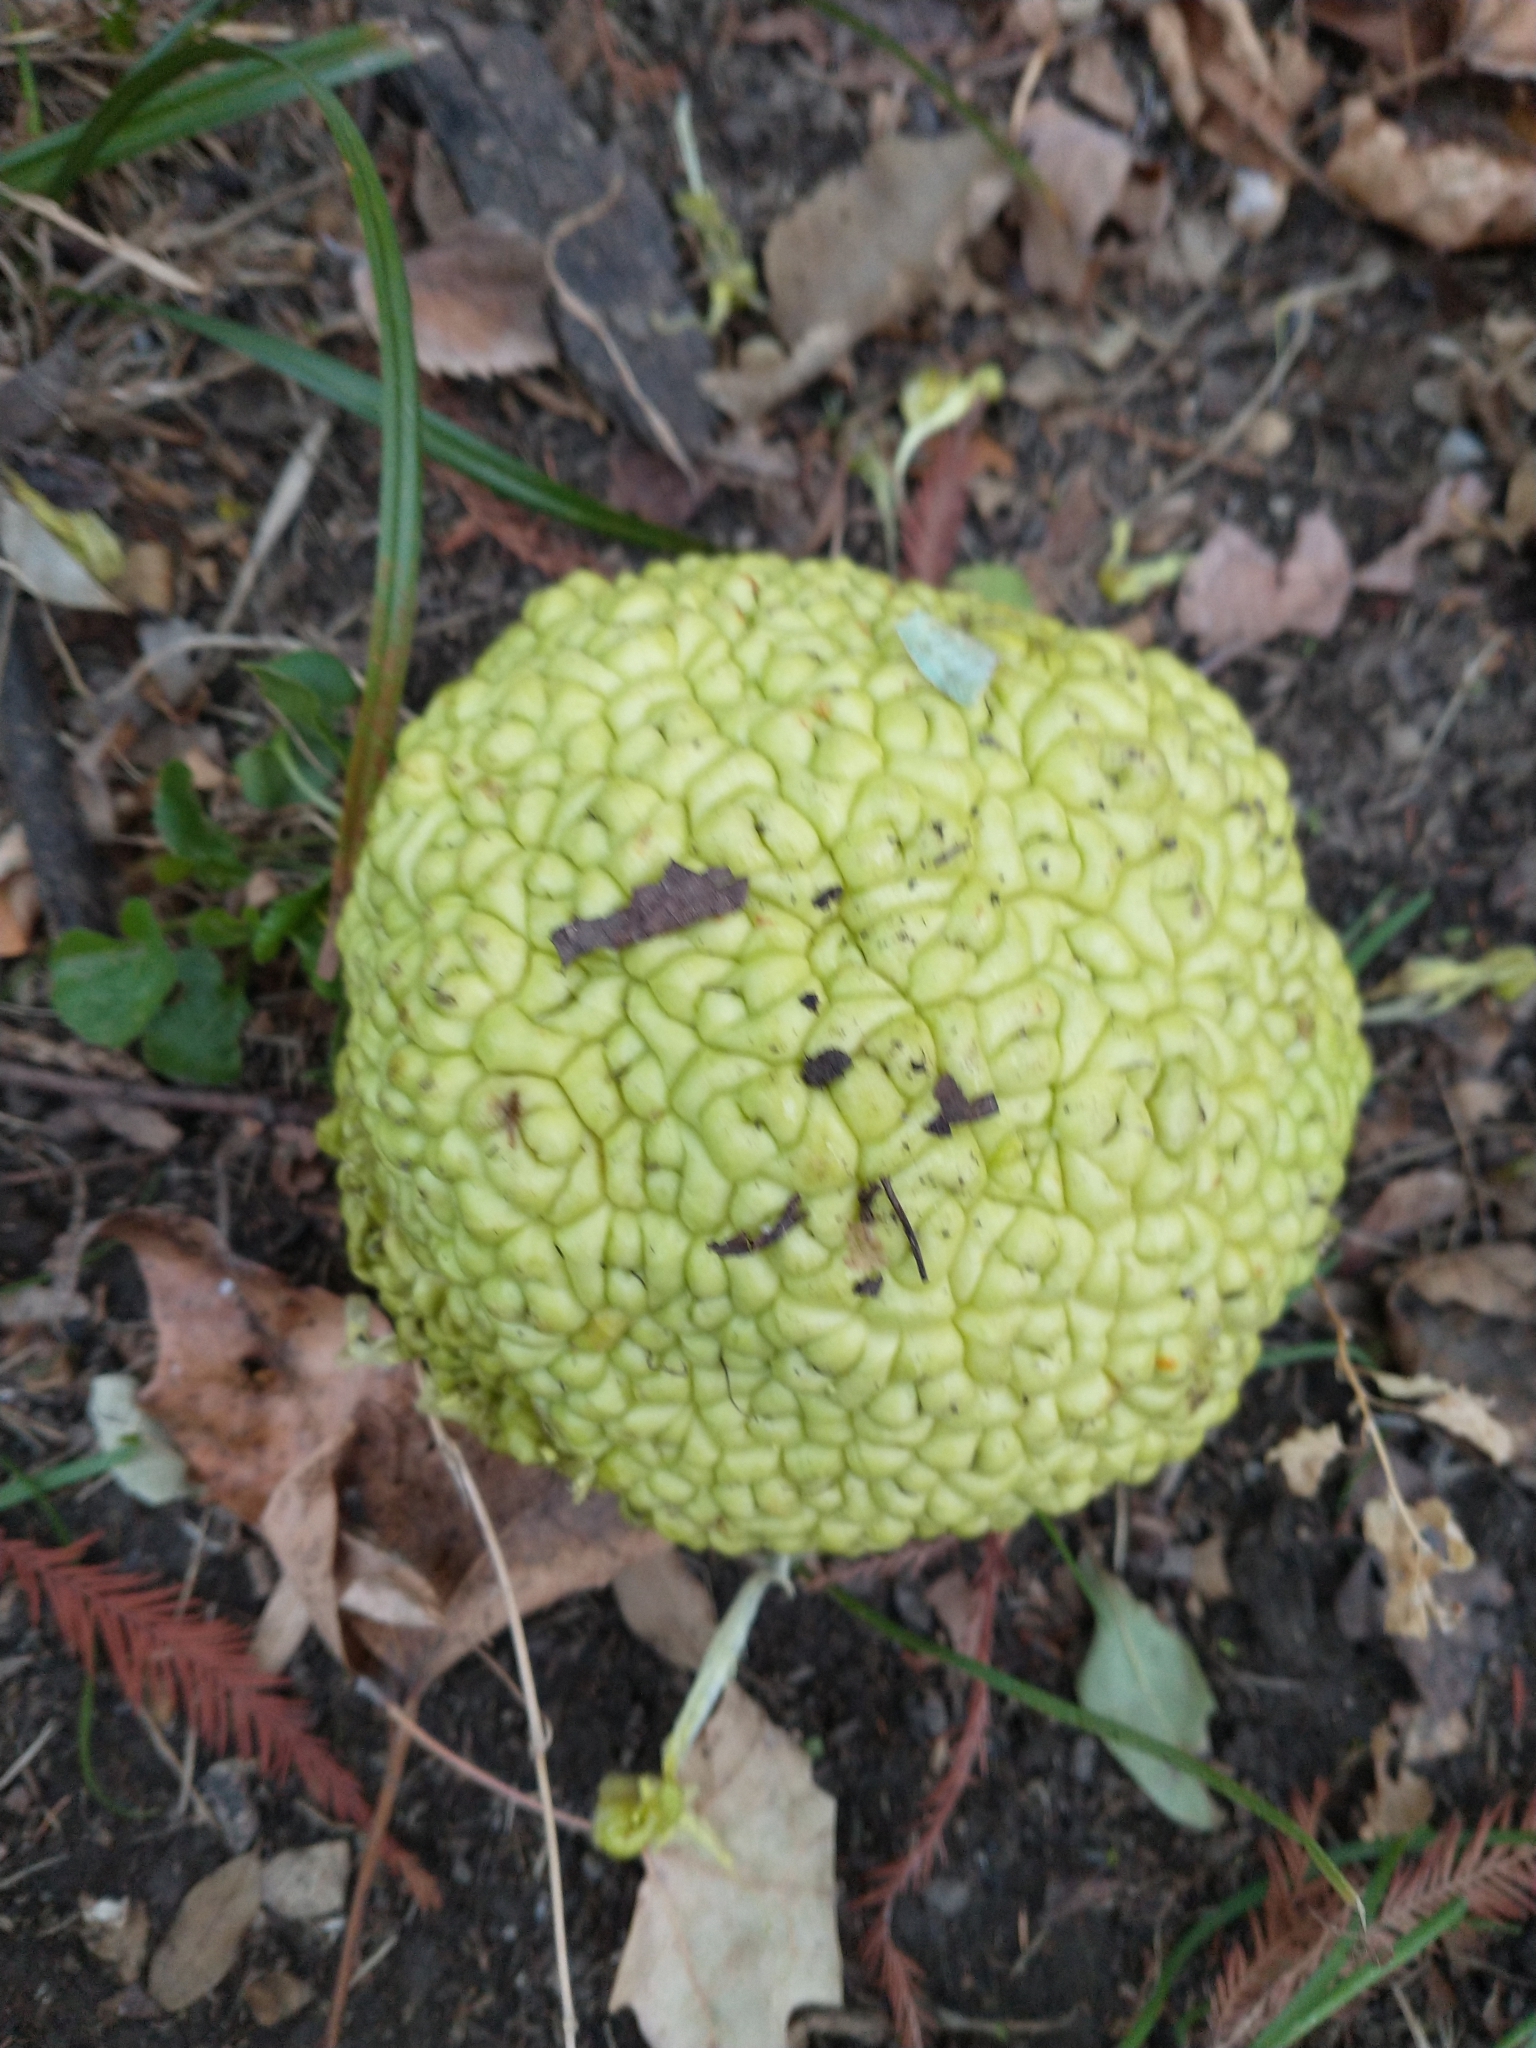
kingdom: Plantae
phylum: Tracheophyta
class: Magnoliopsida
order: Rosales
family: Moraceae
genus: Maclura
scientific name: Maclura pomifera
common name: Osage-orange
